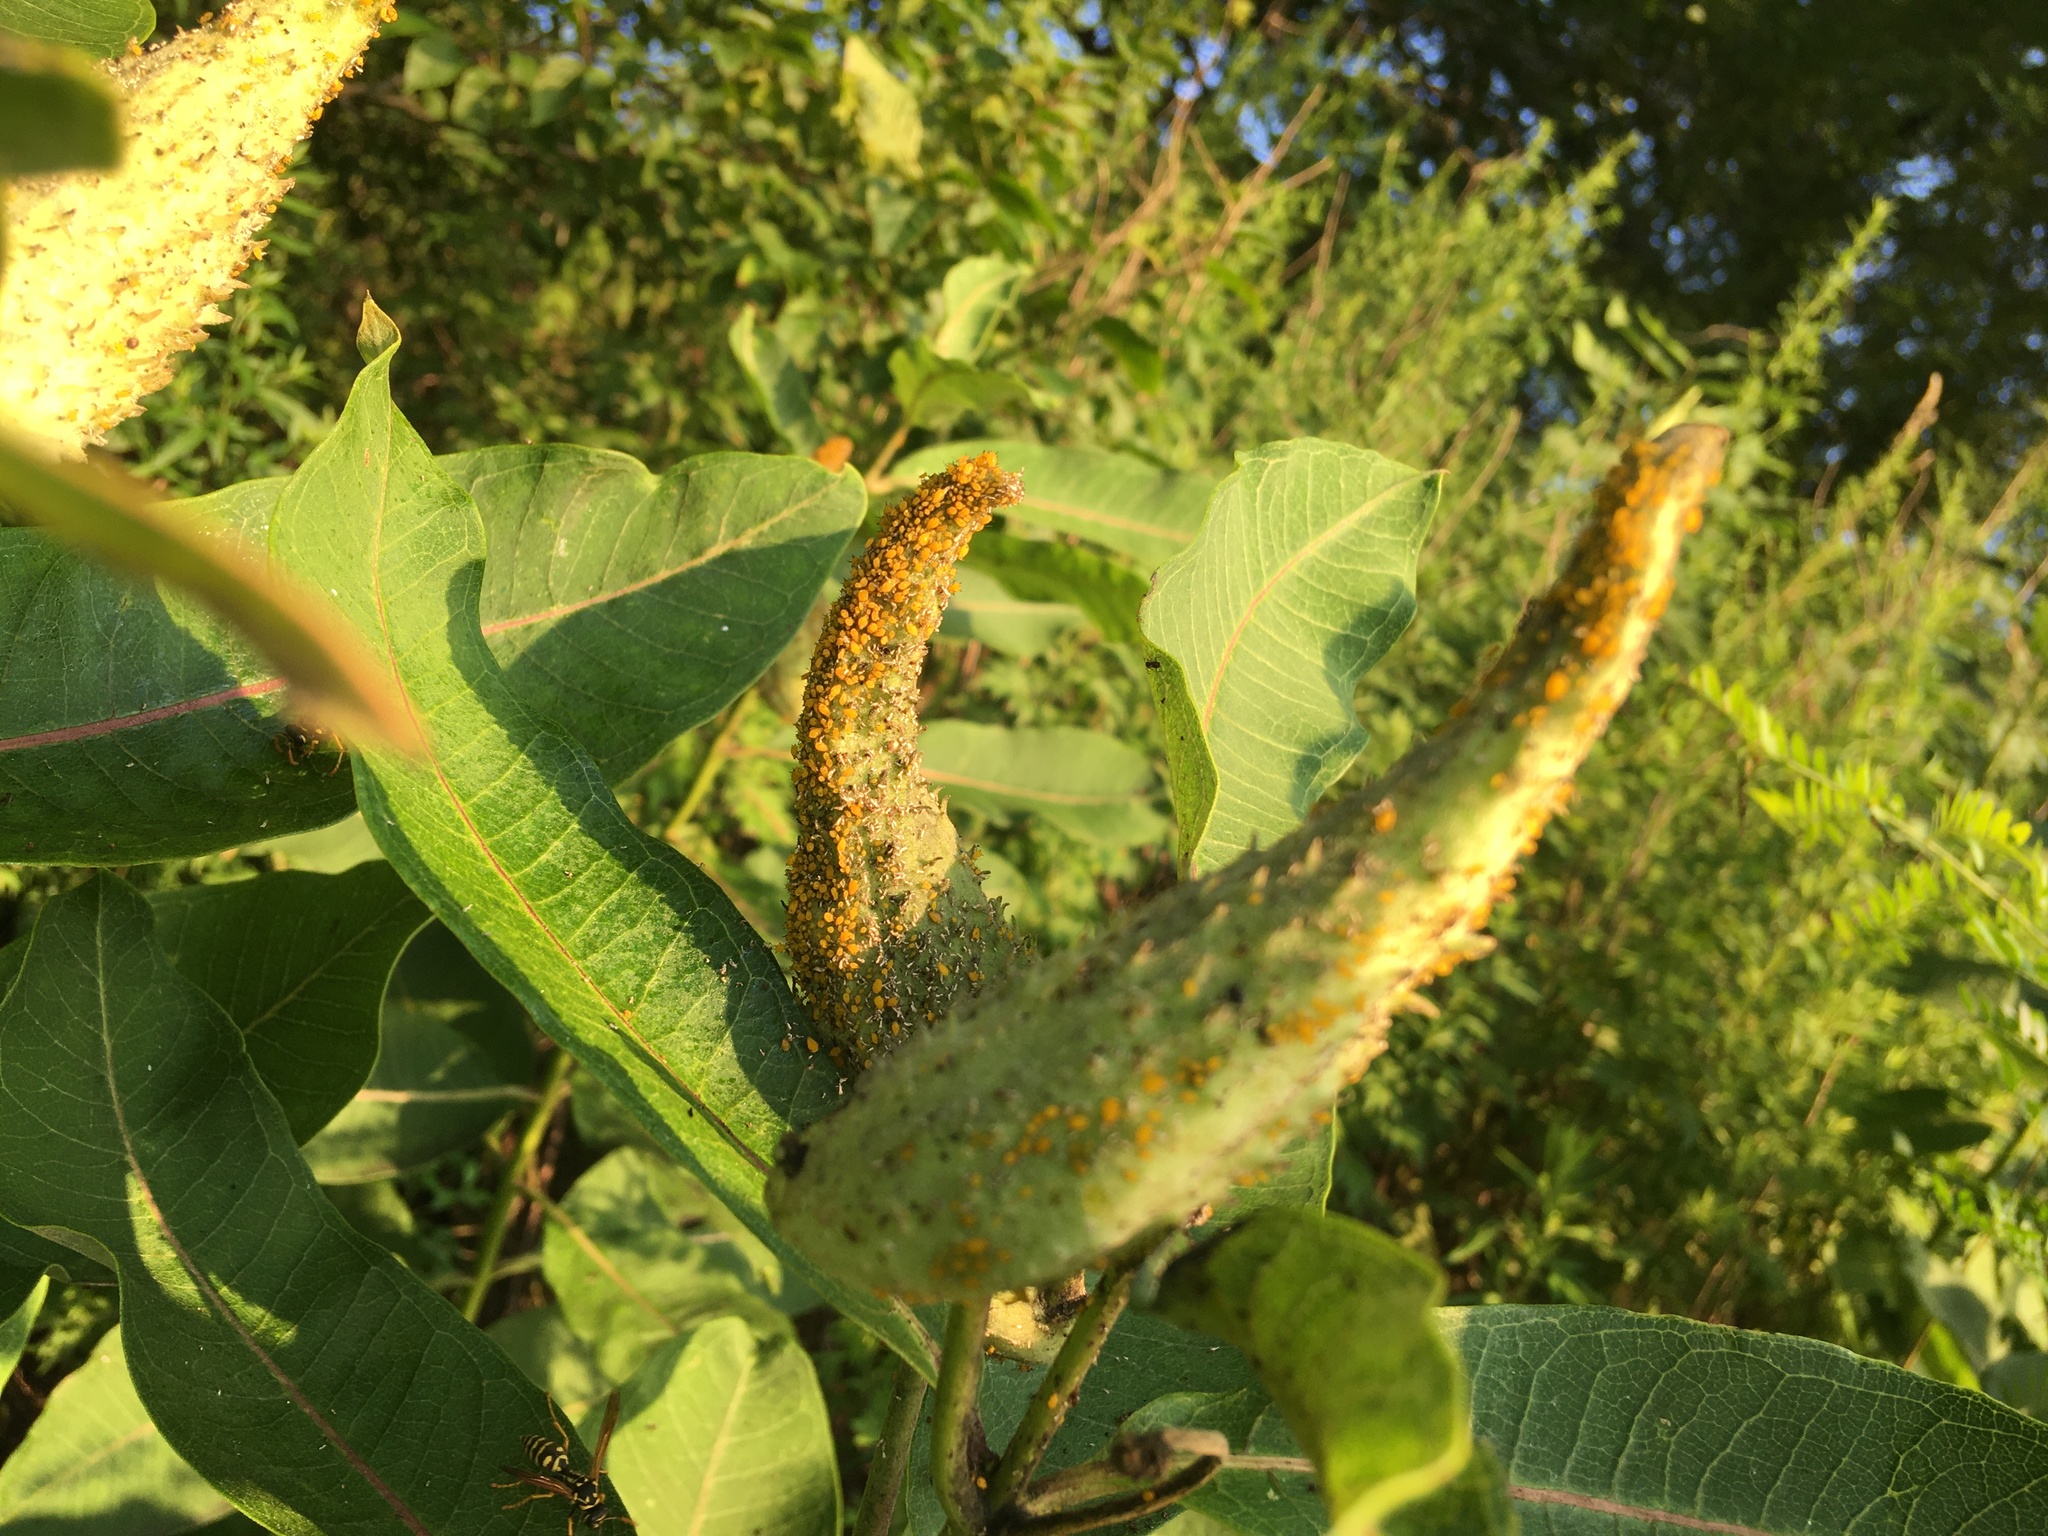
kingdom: Plantae
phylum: Tracheophyta
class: Magnoliopsida
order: Gentianales
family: Apocynaceae
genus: Asclepias
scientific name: Asclepias syriaca
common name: Common milkweed
